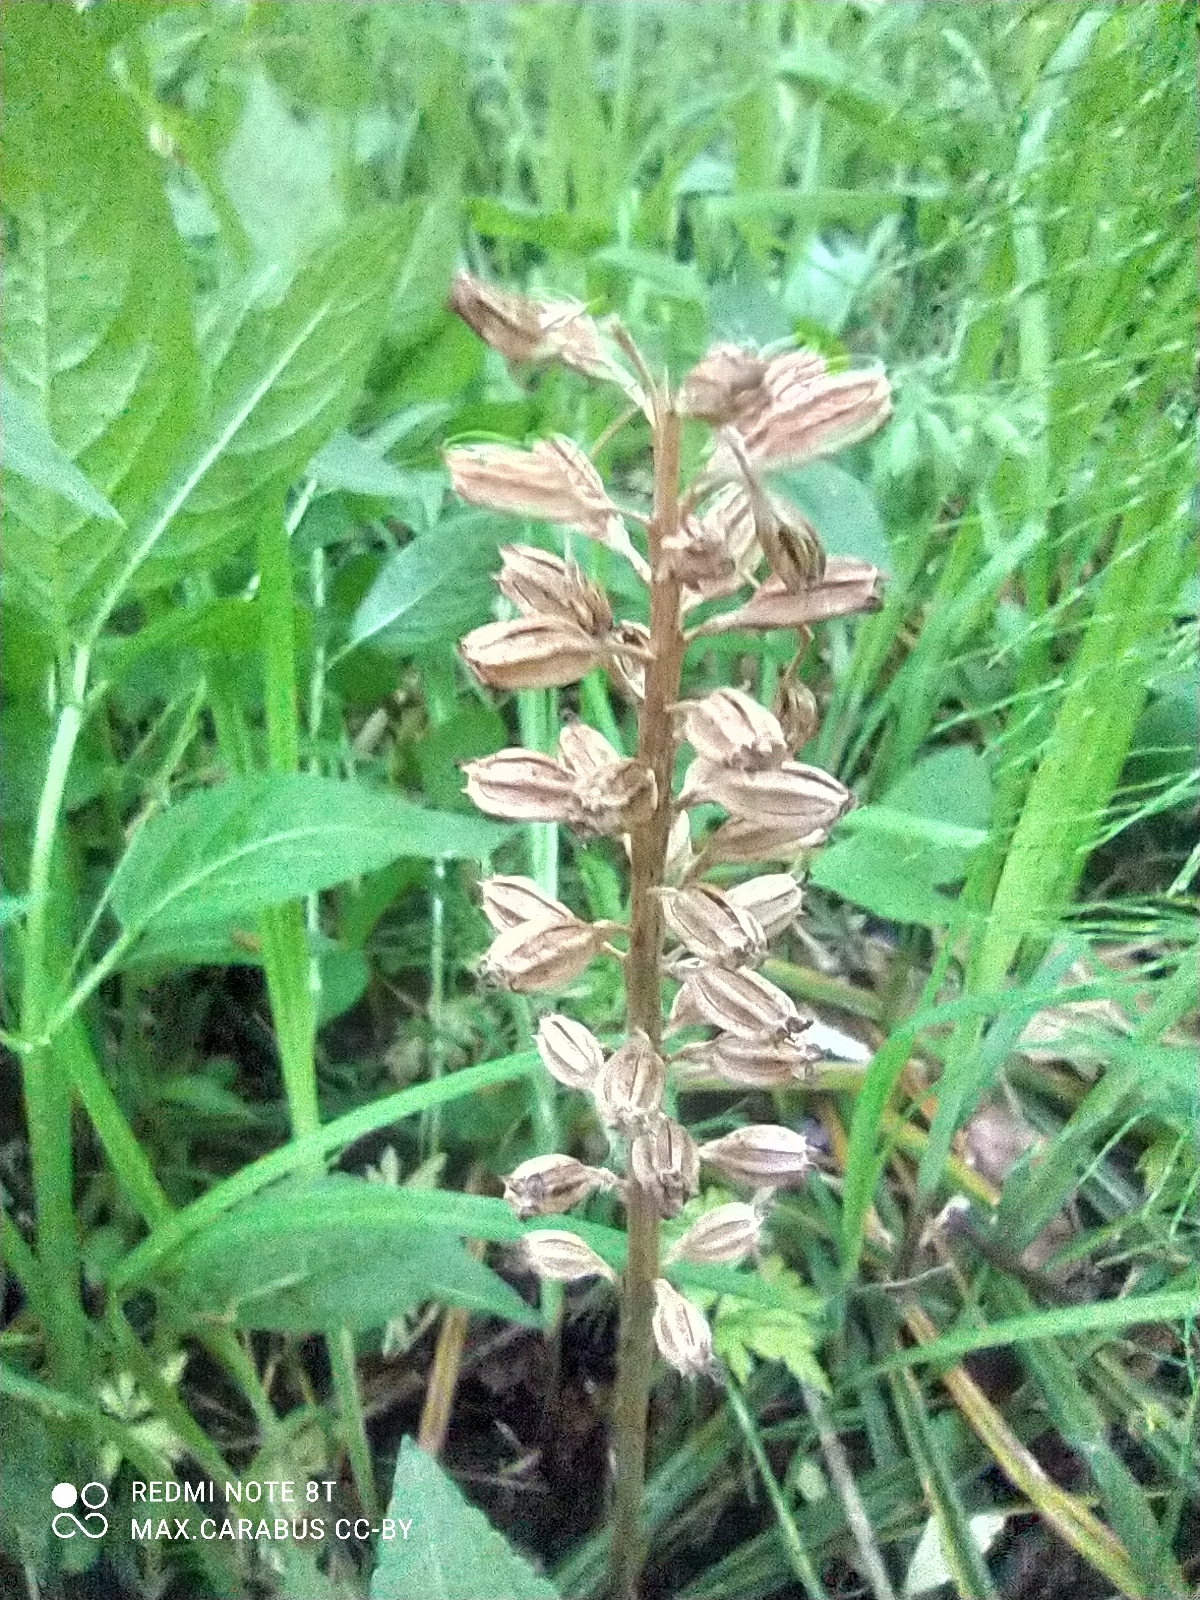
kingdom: Plantae
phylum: Tracheophyta
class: Liliopsida
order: Asparagales
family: Orchidaceae
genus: Neottia
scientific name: Neottia nidus-avis
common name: Bird's-nest orchid
